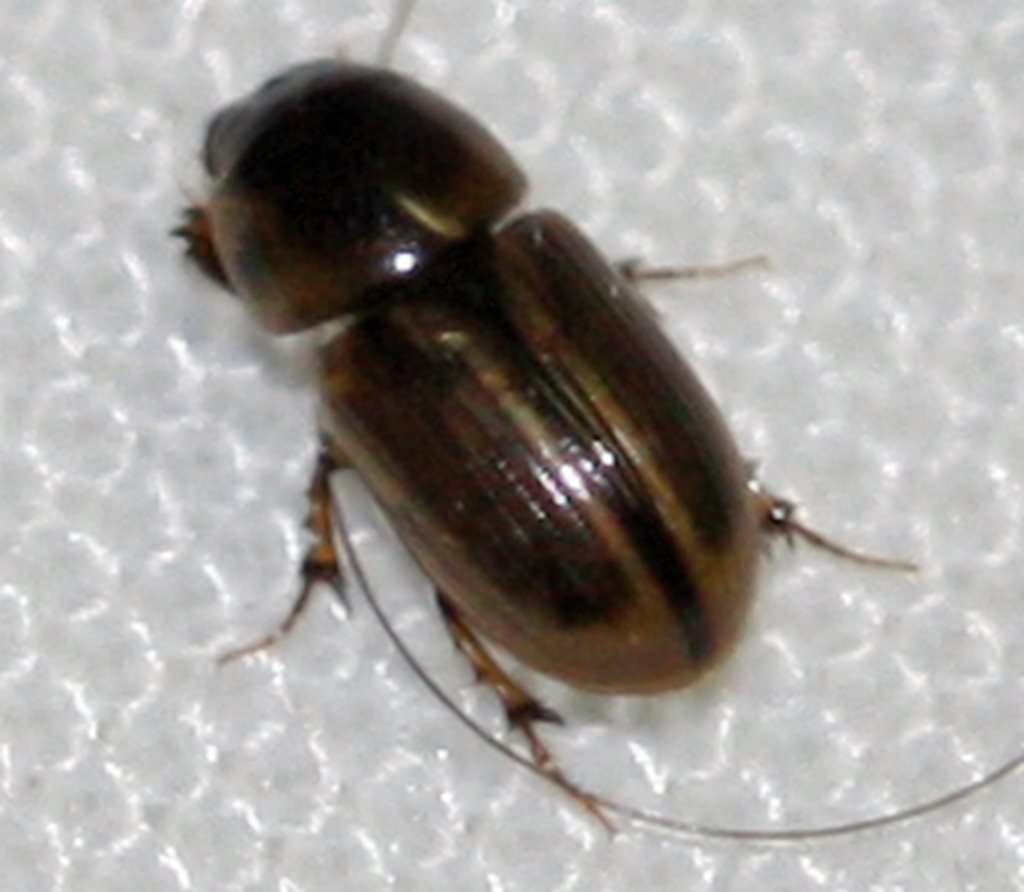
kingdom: Animalia
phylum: Arthropoda
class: Insecta
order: Coleoptera
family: Scarabaeidae
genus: Labarrus
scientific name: Labarrus lividus
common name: Scarab beetle
